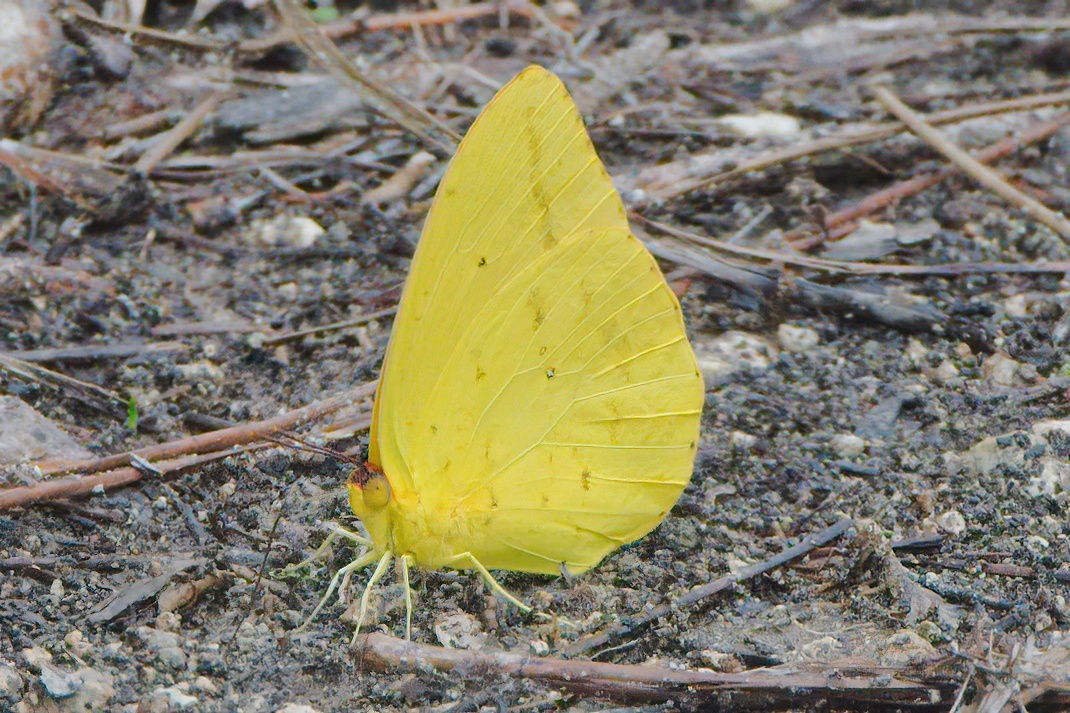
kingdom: Animalia
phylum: Arthropoda
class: Insecta
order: Lepidoptera
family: Pieridae
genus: Phoebis
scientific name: Phoebis agarithe
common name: Large orange sulphur
